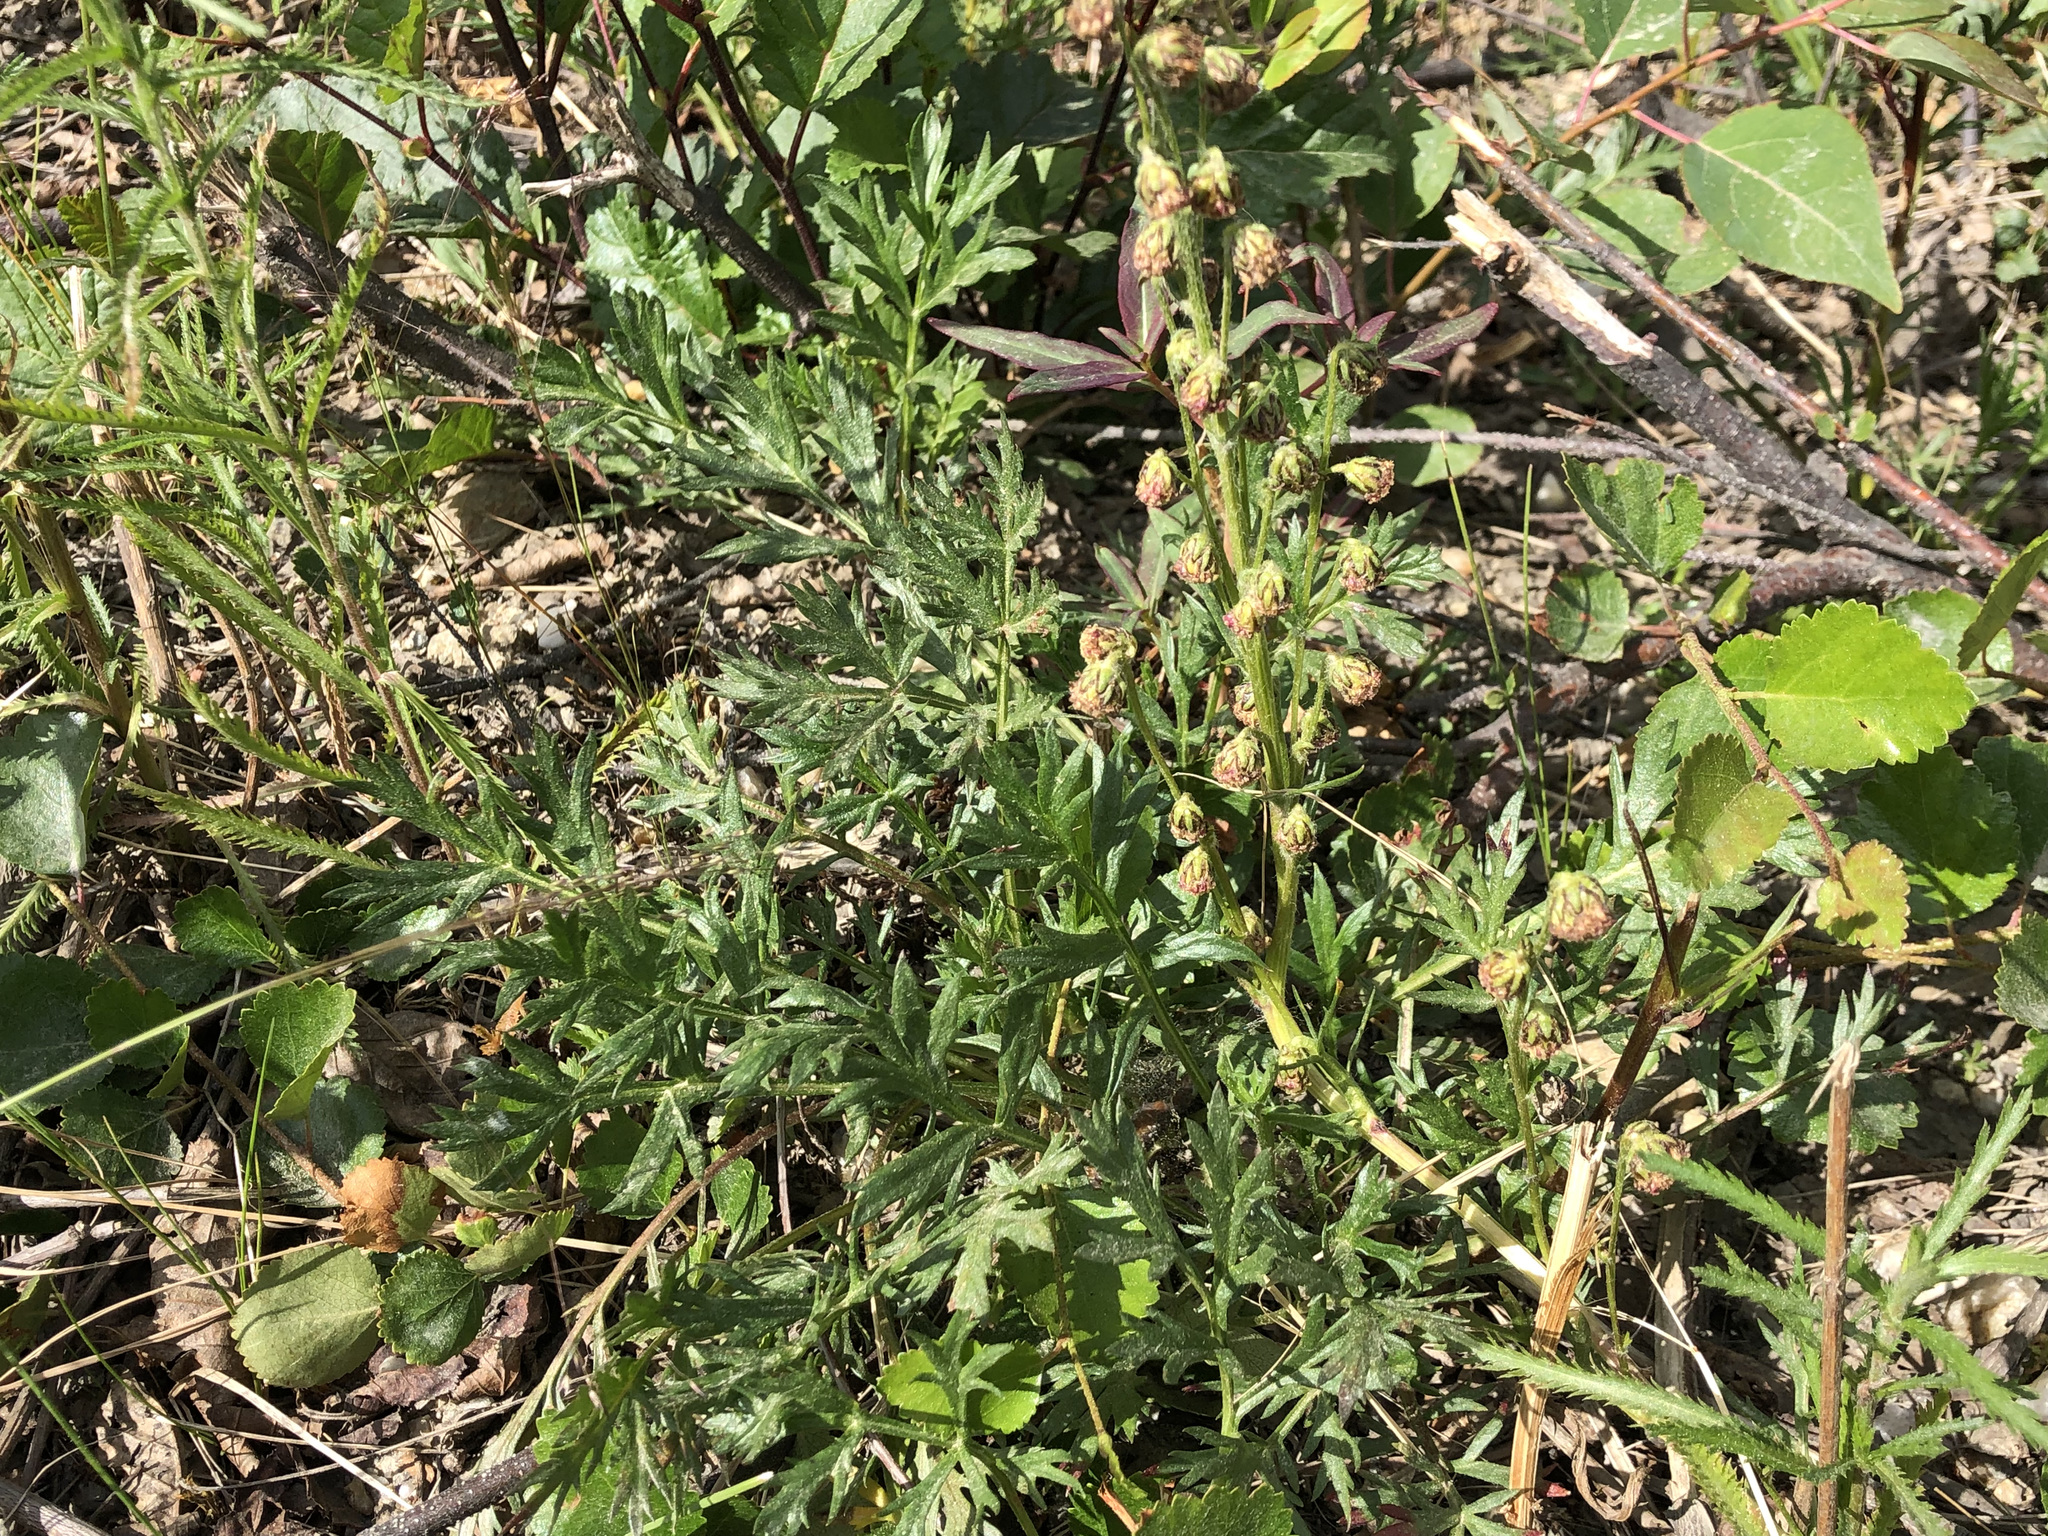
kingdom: Plantae
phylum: Tracheophyta
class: Magnoliopsida
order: Asterales
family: Asteraceae
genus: Artemisia
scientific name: Artemisia
